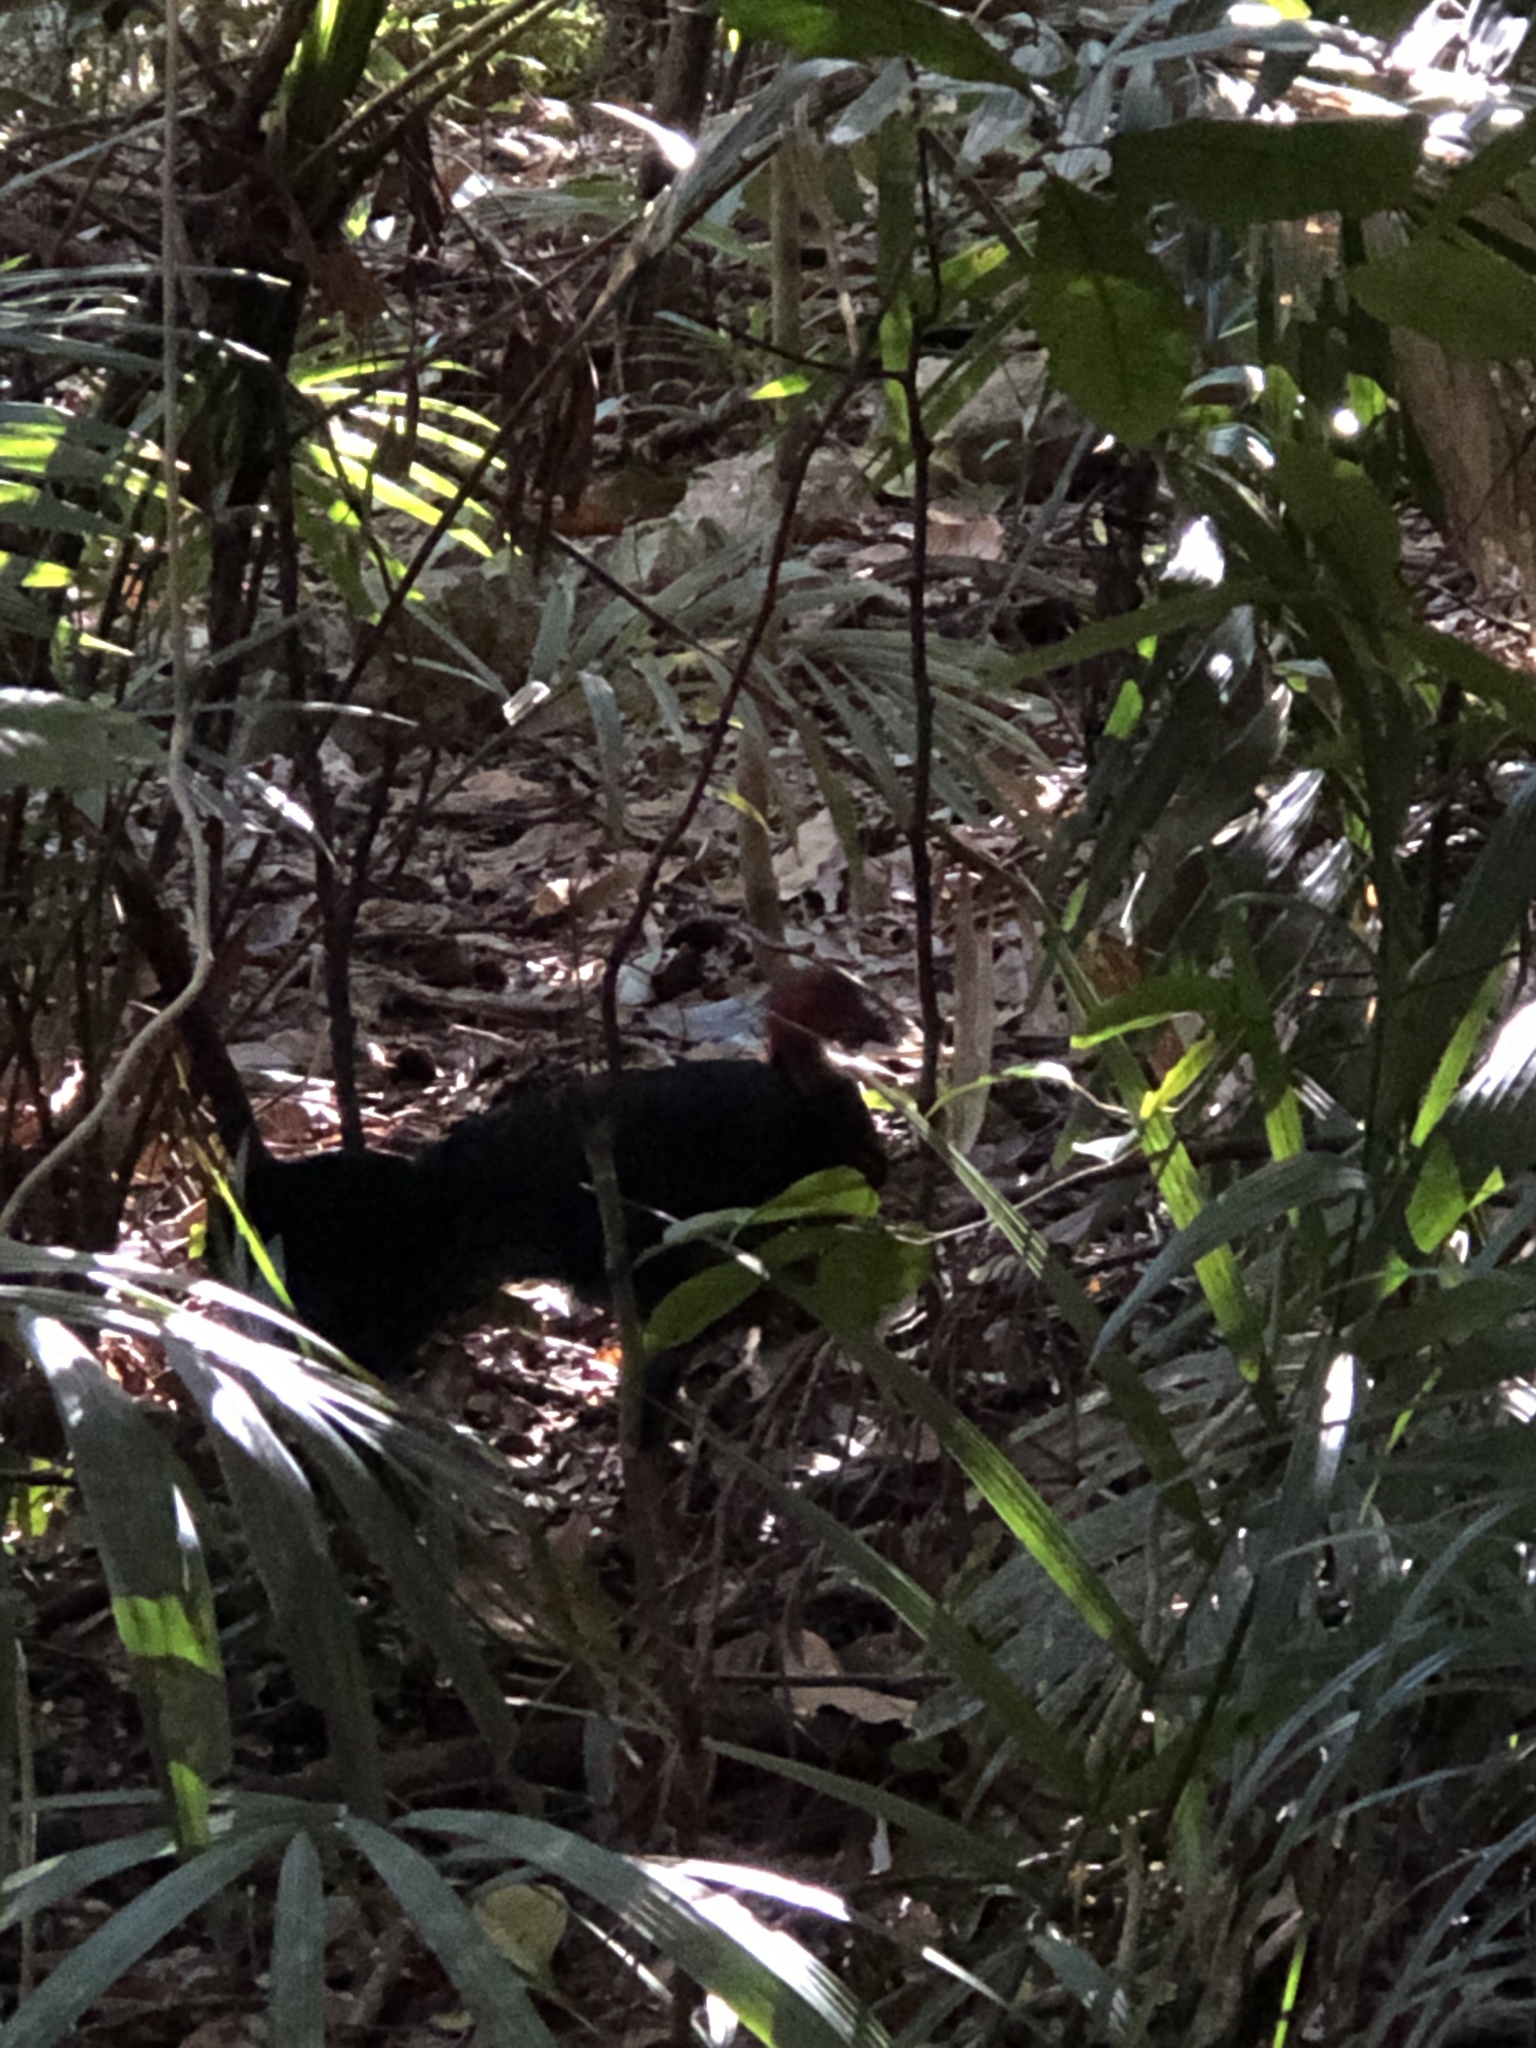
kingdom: Animalia
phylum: Chordata
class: Aves
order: Galliformes
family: Megapodiidae
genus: Alectura
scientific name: Alectura lathami
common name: Australian brushturkey
